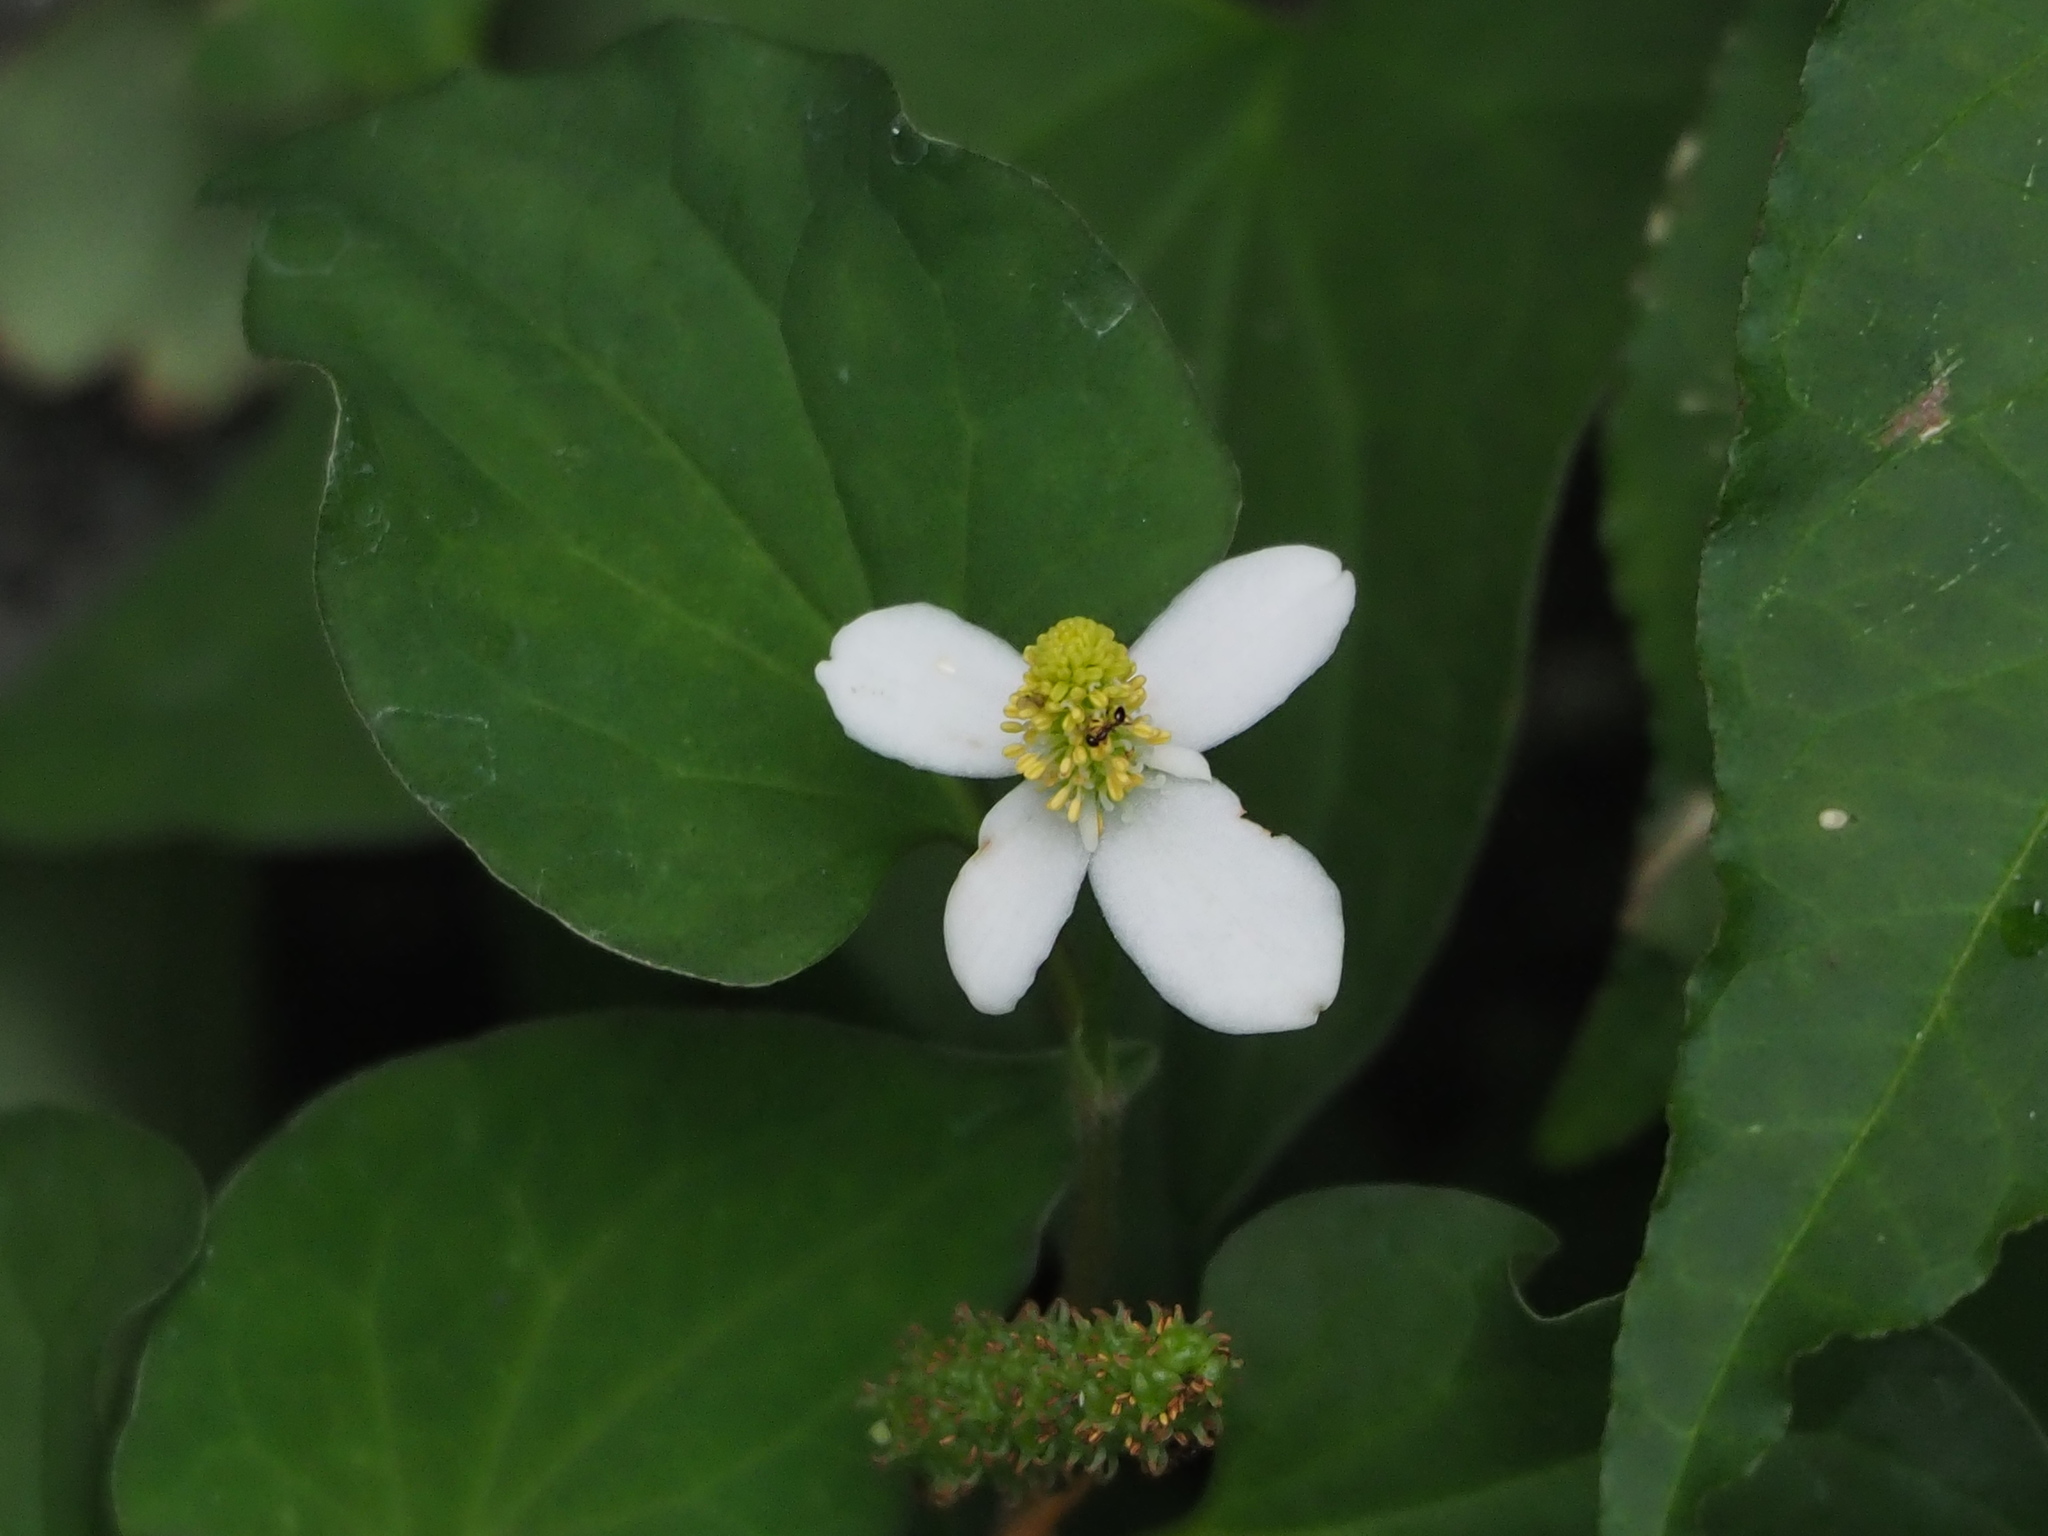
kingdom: Plantae
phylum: Tracheophyta
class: Magnoliopsida
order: Piperales
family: Saururaceae
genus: Houttuynia
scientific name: Houttuynia cordata
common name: Chameleon
